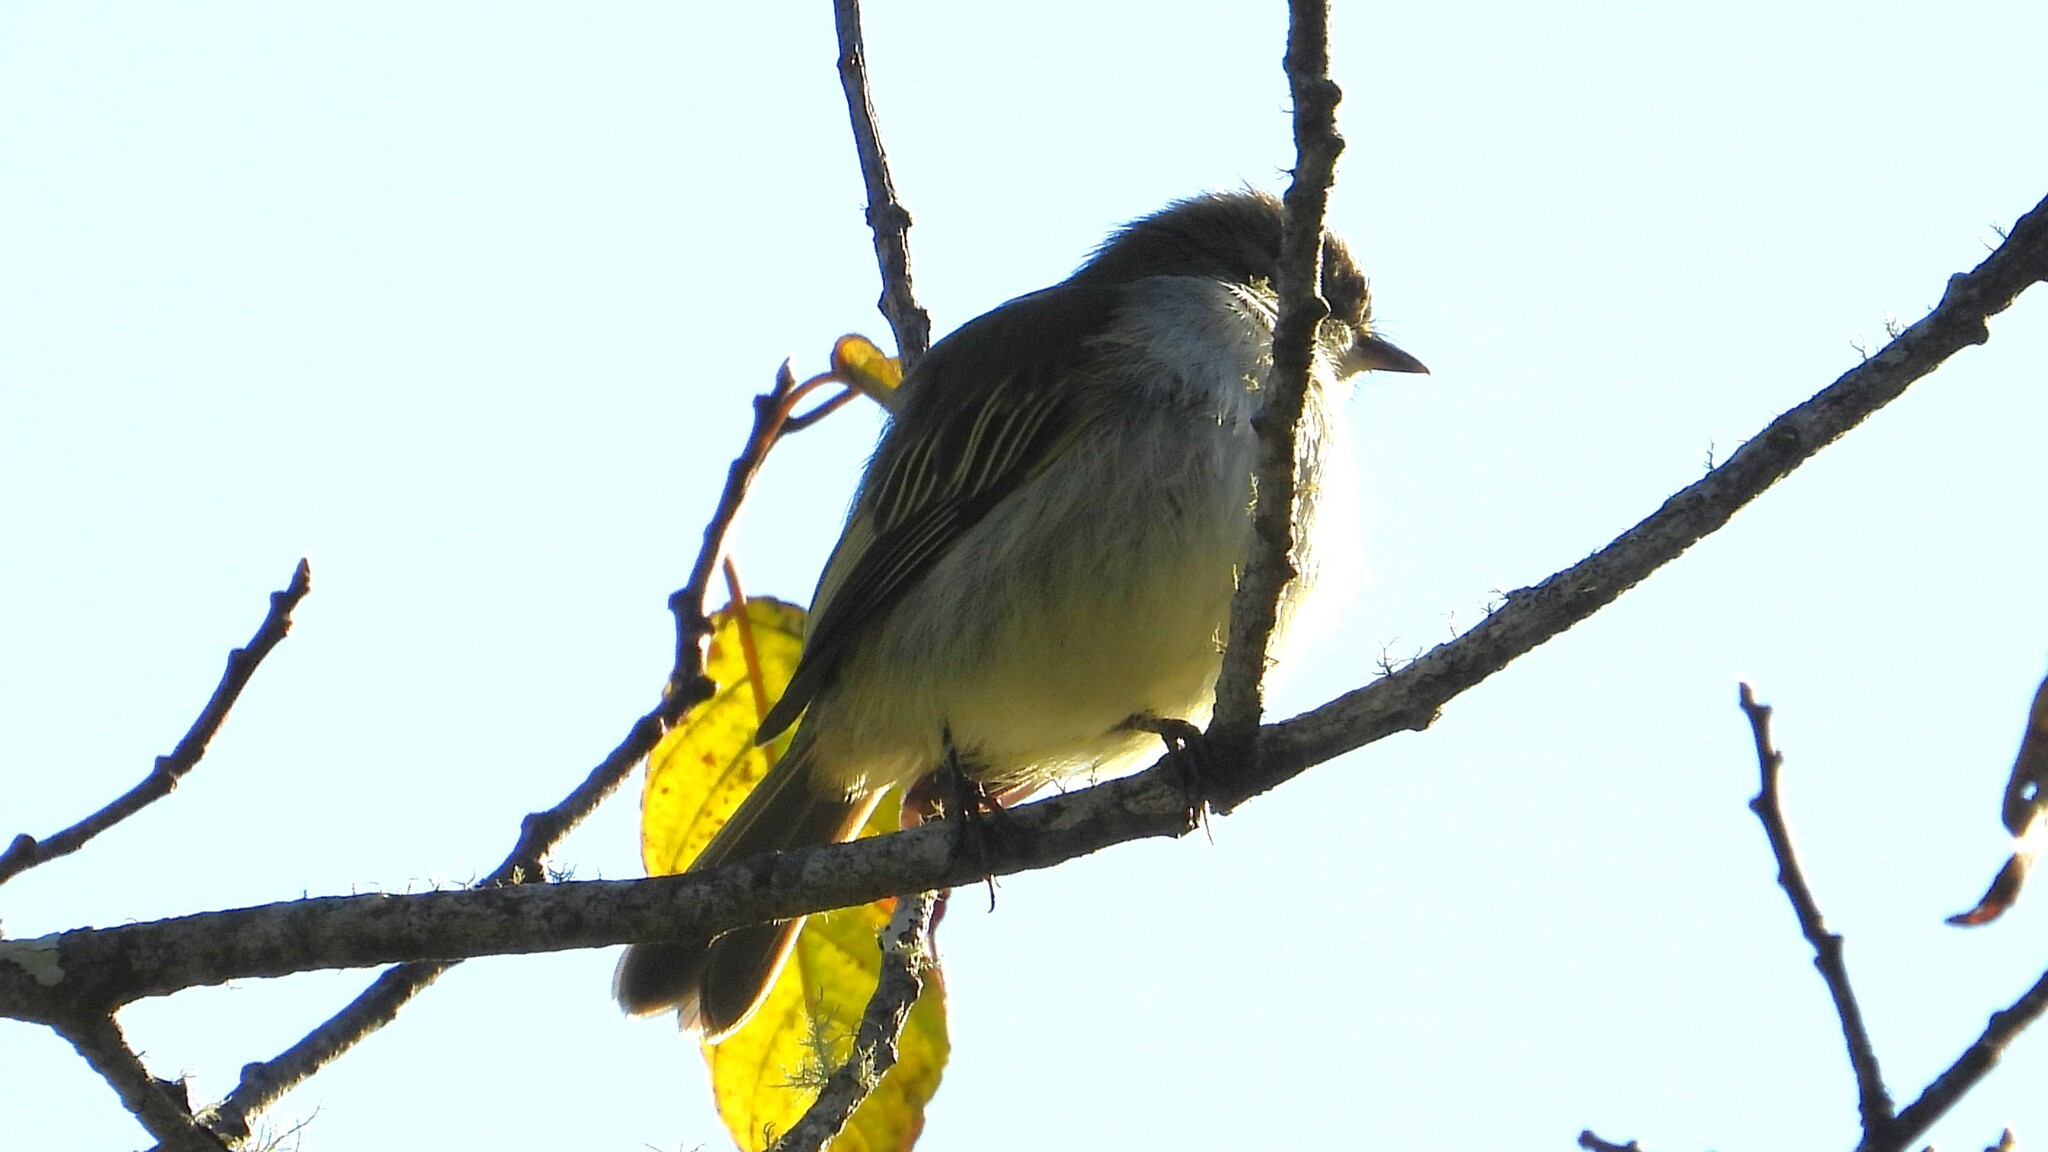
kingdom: Animalia
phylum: Chordata
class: Aves
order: Passeriformes
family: Tyrannidae
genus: Zimmerius
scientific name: Zimmerius vilissimus
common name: Paltry tyrannulet
